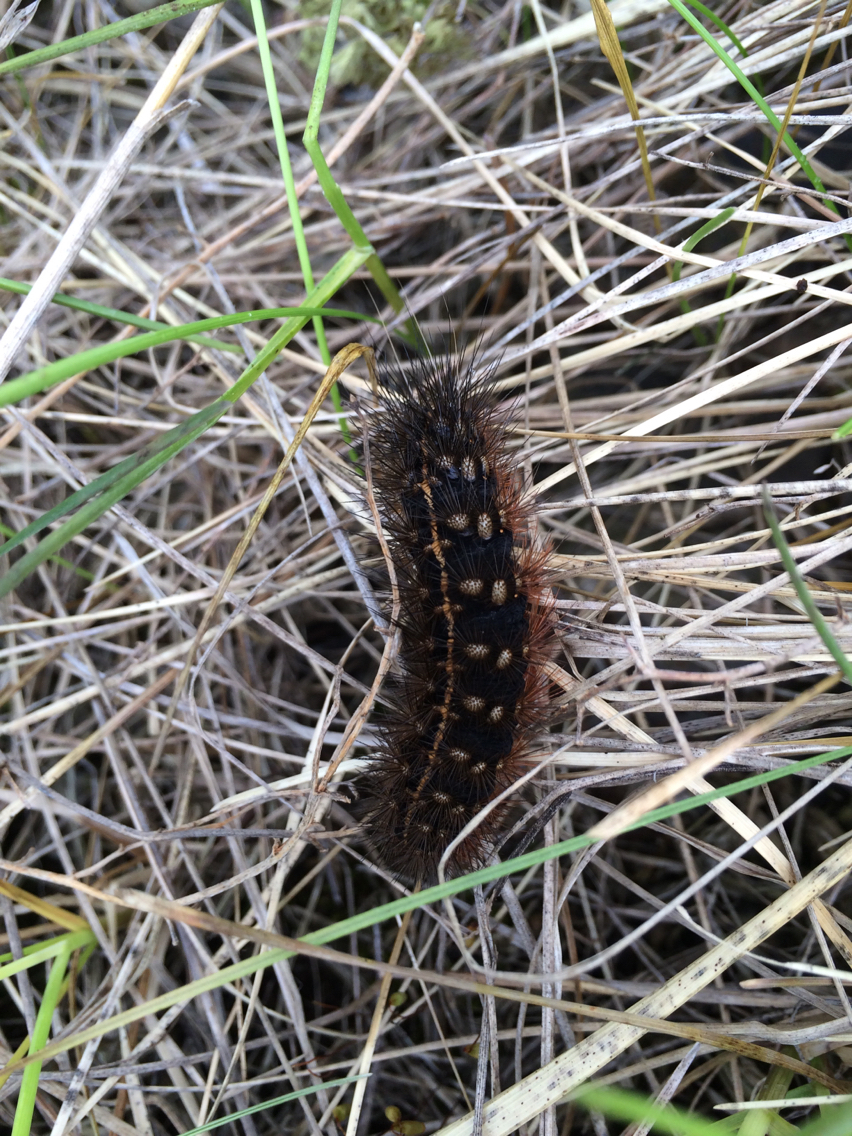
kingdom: Animalia
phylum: Arthropoda
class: Insecta
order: Lepidoptera
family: Erebidae
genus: Grammia
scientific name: Grammia virgo
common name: Virgin tiger moth
